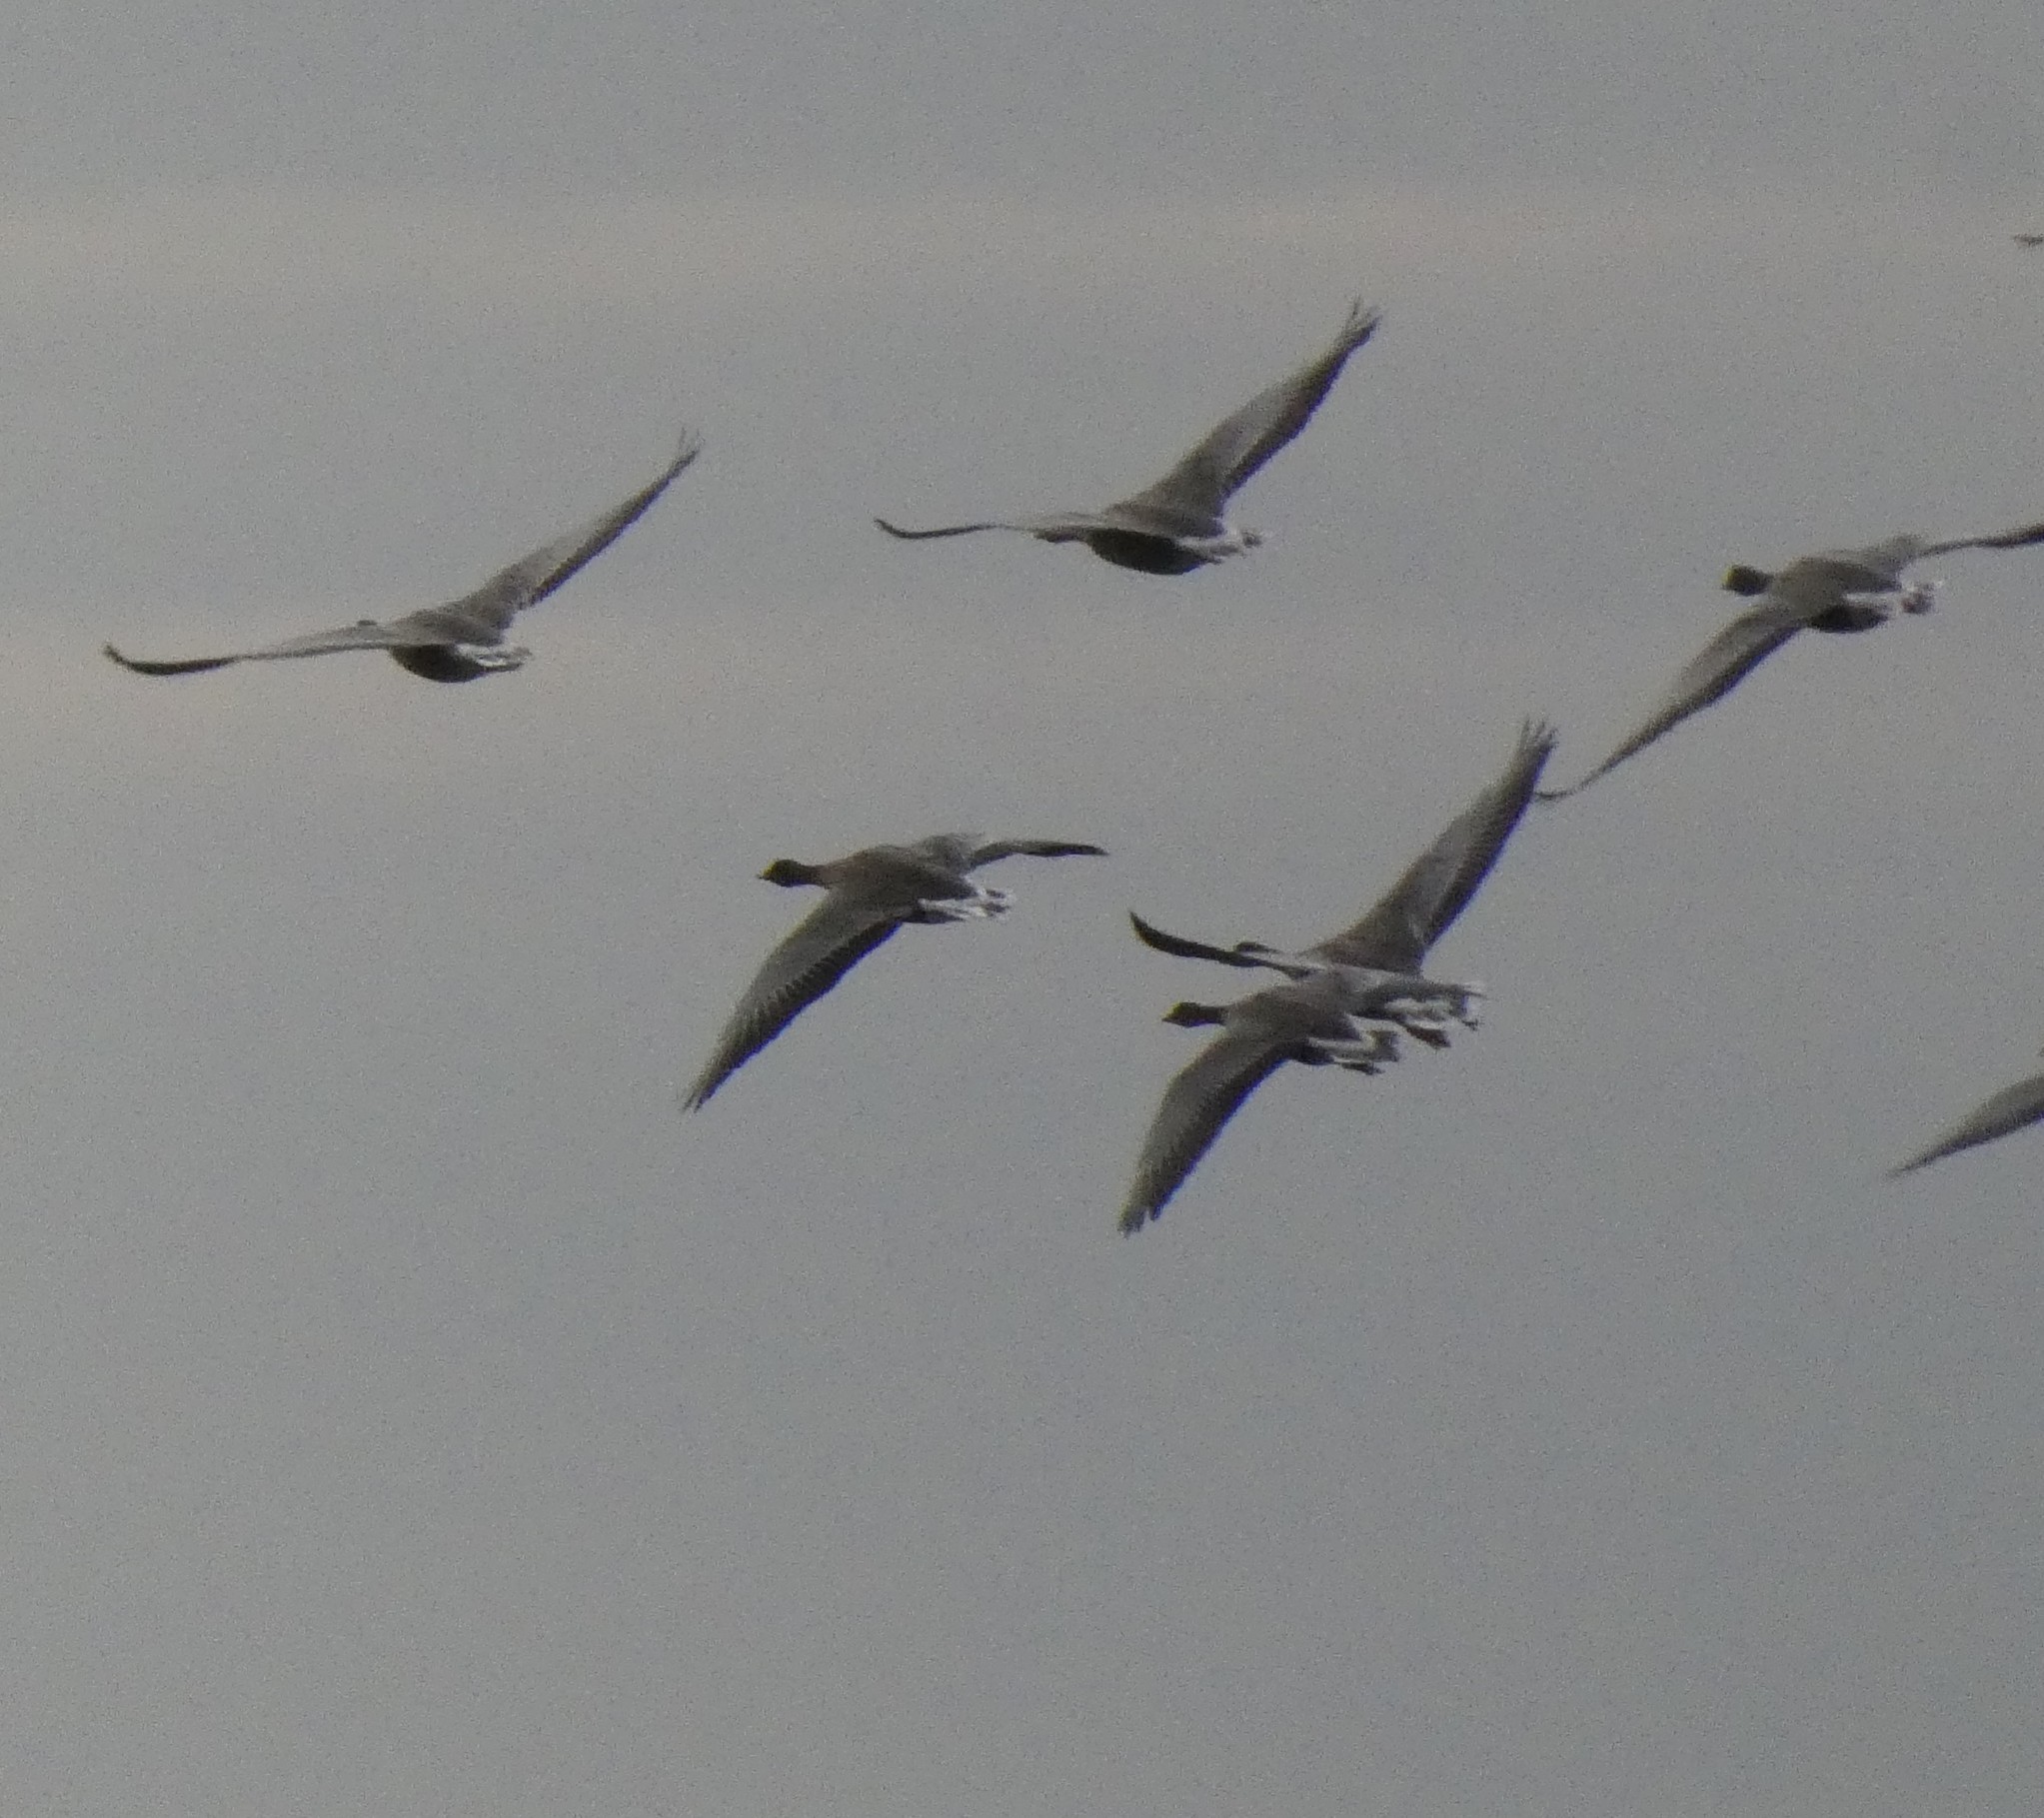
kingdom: Animalia
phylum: Chordata
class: Aves
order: Anseriformes
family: Anatidae
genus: Anser
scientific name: Anser brachyrhynchus
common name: Pink-footed goose
